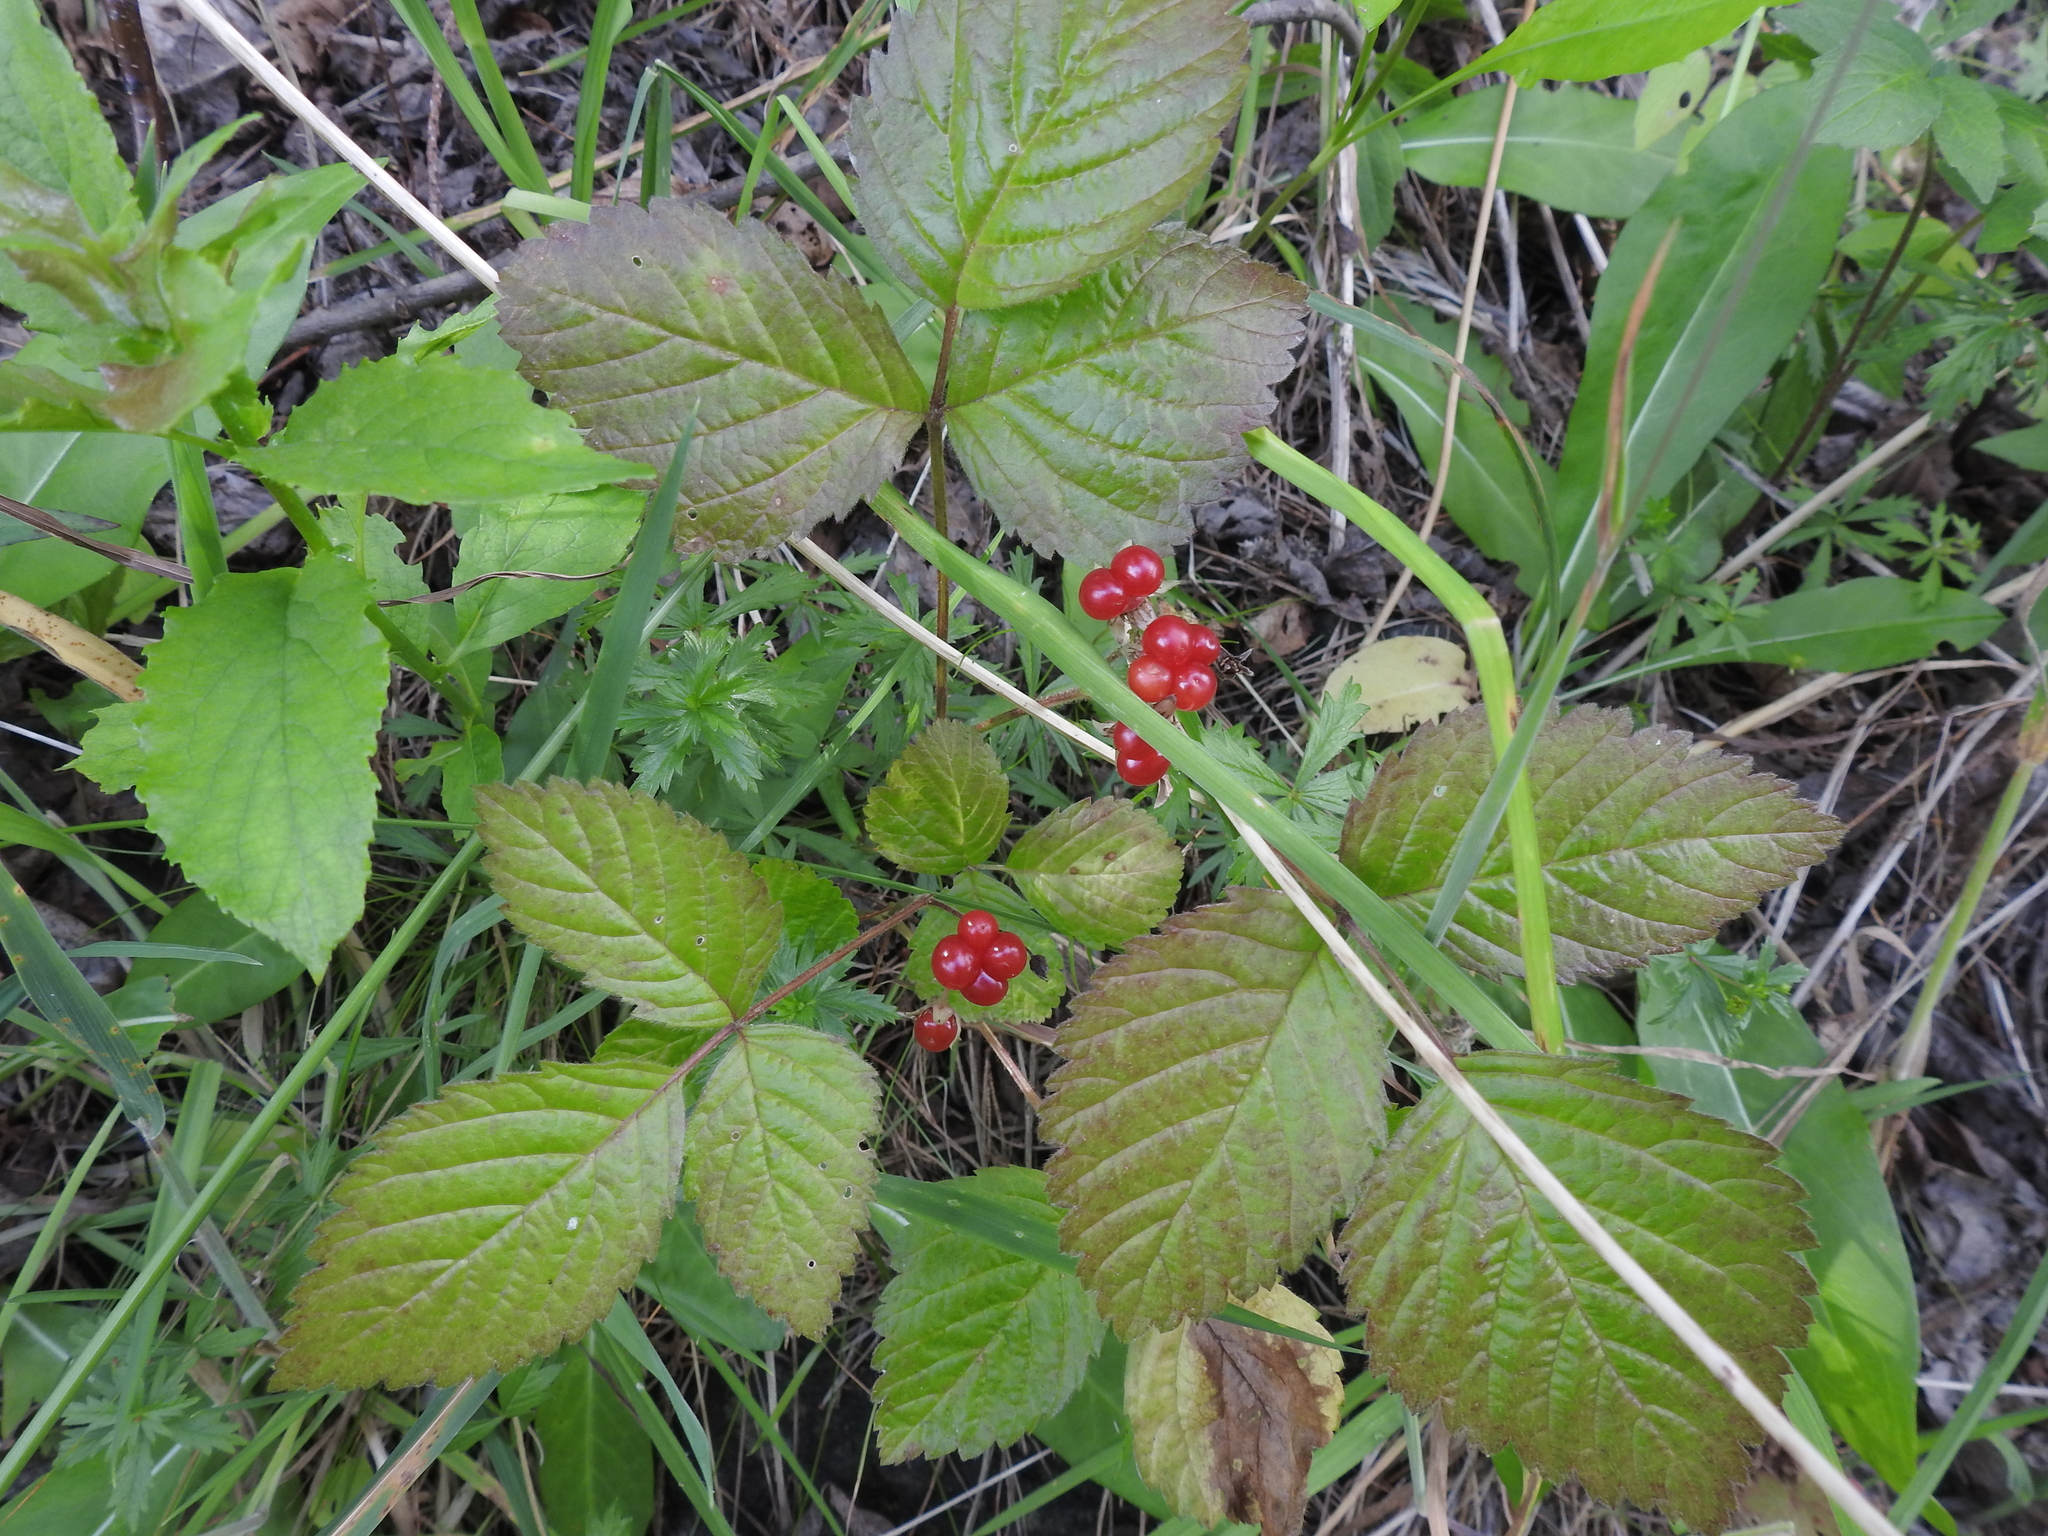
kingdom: Plantae
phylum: Tracheophyta
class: Magnoliopsida
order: Rosales
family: Rosaceae
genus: Rubus
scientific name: Rubus saxatilis
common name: Stone bramble
